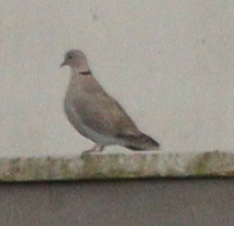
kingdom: Animalia
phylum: Chordata
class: Aves
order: Columbiformes
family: Columbidae
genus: Streptopelia
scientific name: Streptopelia decaocto
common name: Eurasian collared dove
